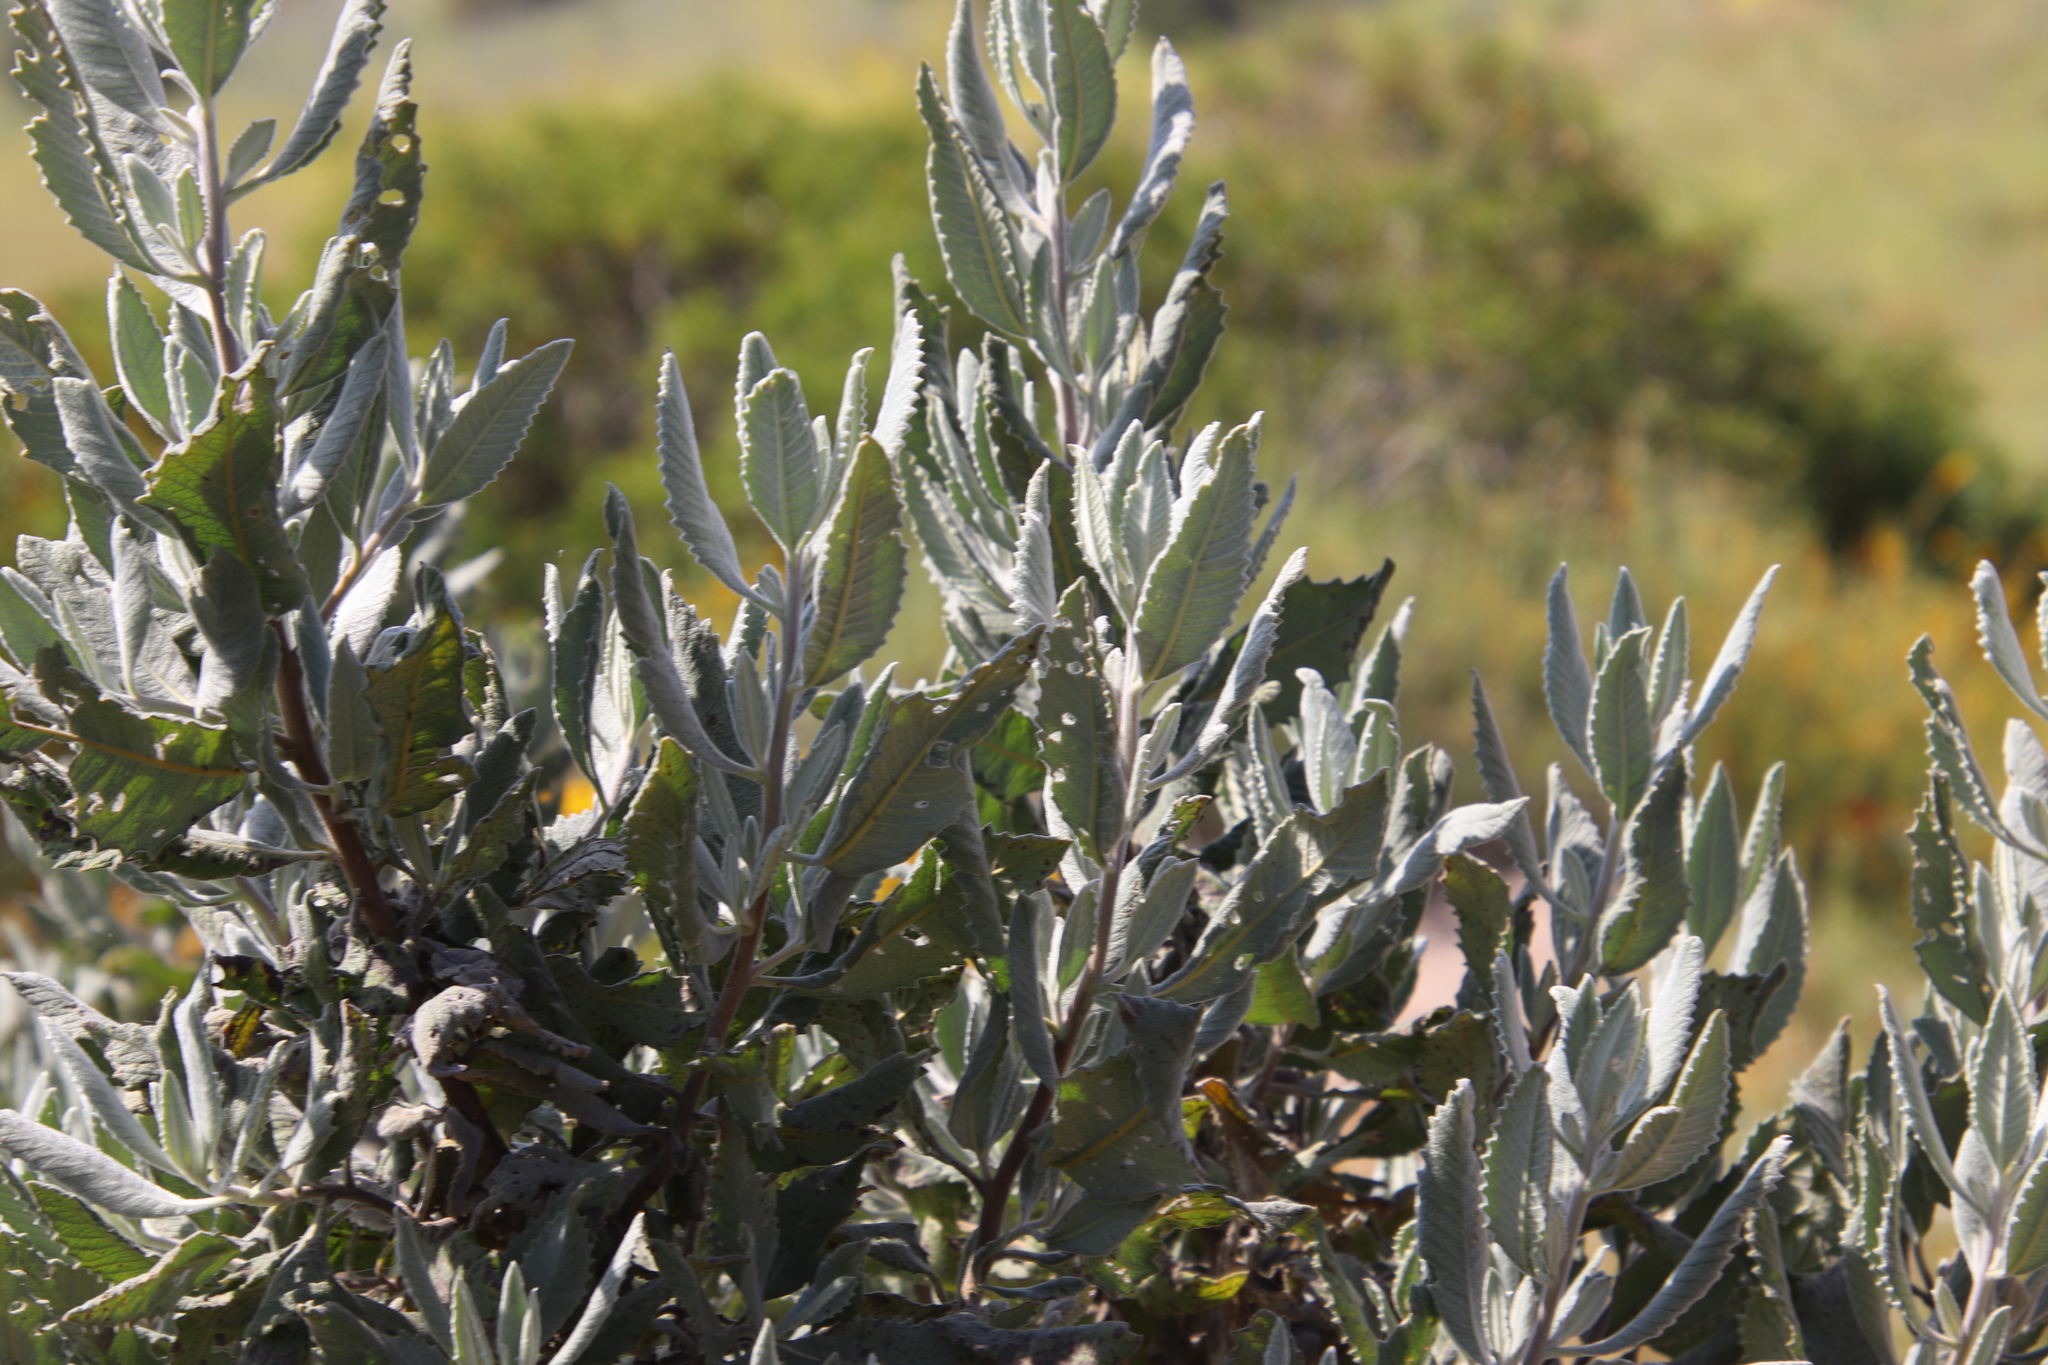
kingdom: Plantae
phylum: Tracheophyta
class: Magnoliopsida
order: Boraginales
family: Namaceae
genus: Eriodictyon
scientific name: Eriodictyon crassifolium
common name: Thick-leaf yerba-santa
